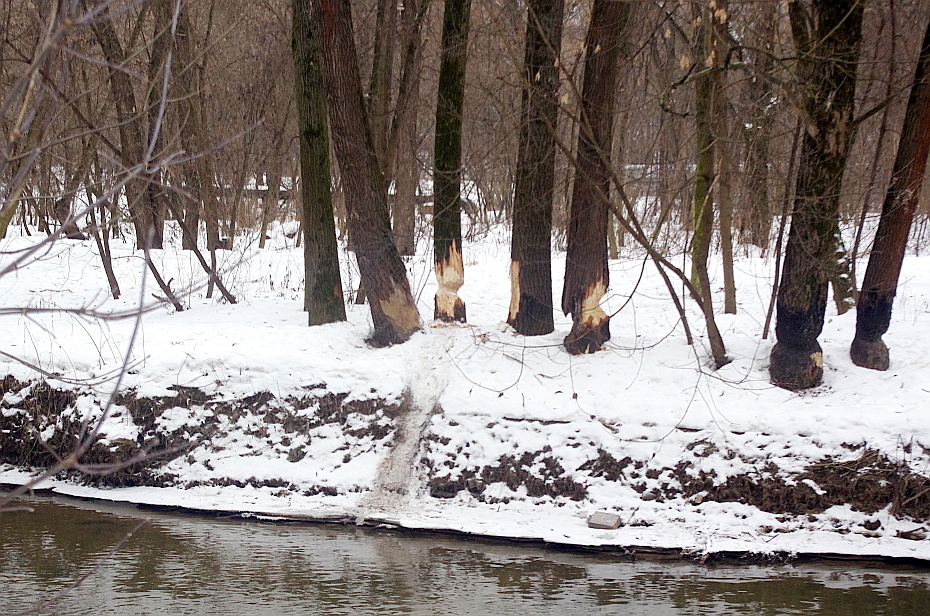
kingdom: Animalia
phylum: Chordata
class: Mammalia
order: Rodentia
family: Castoridae
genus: Castor
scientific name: Castor fiber
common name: Eurasian beaver
